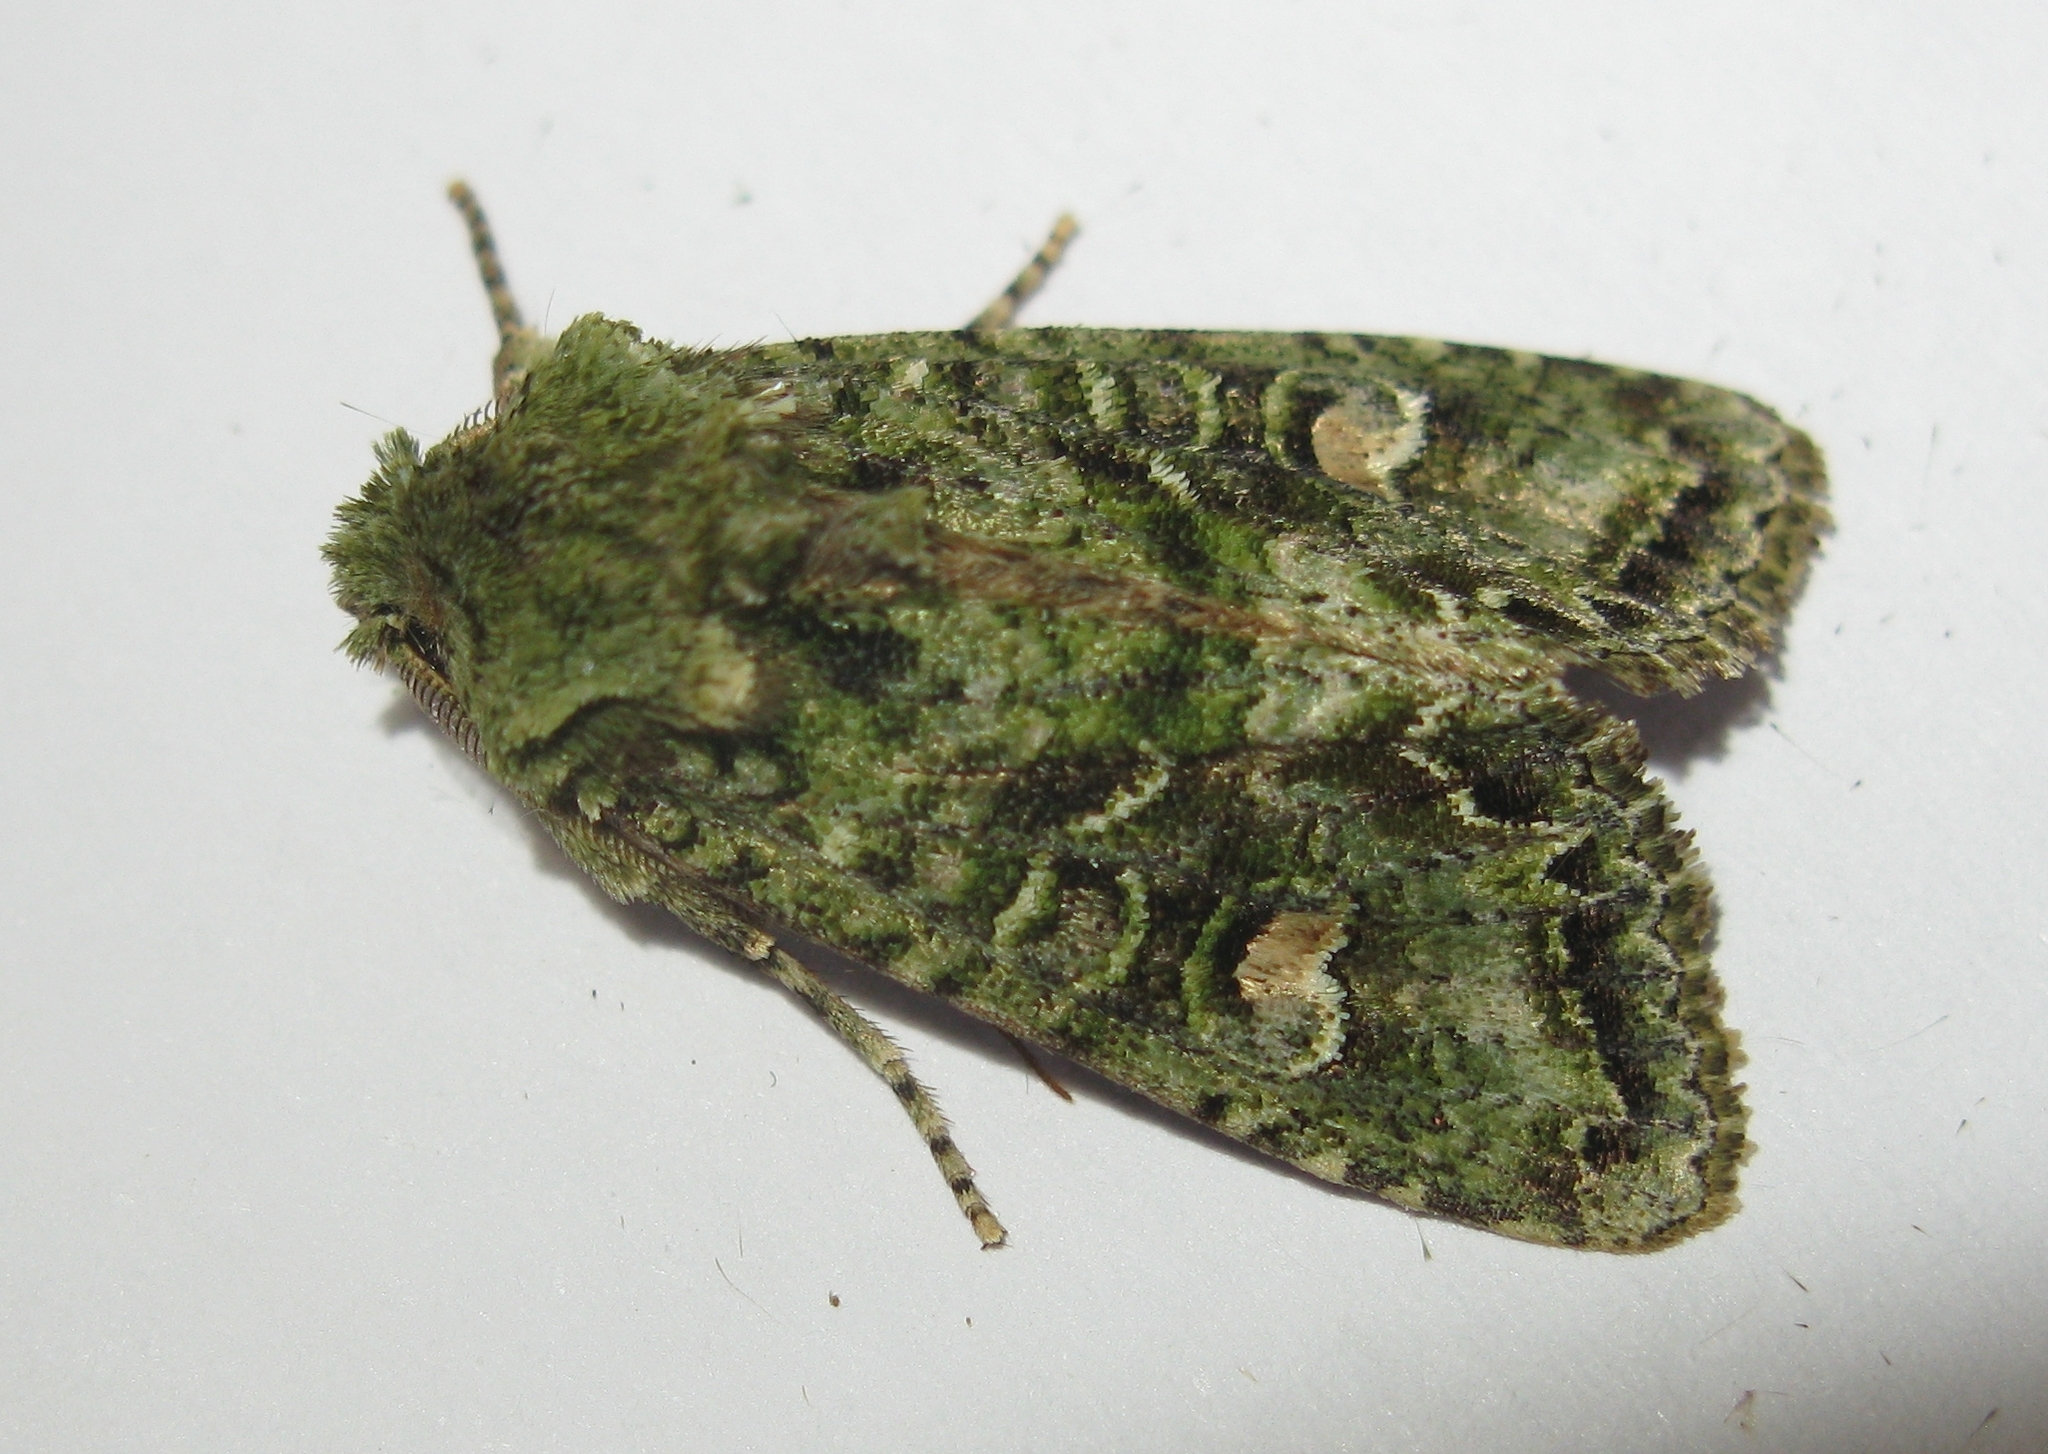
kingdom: Animalia
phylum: Arthropoda
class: Insecta
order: Lepidoptera
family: Noctuidae
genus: Ichneutica
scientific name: Ichneutica
